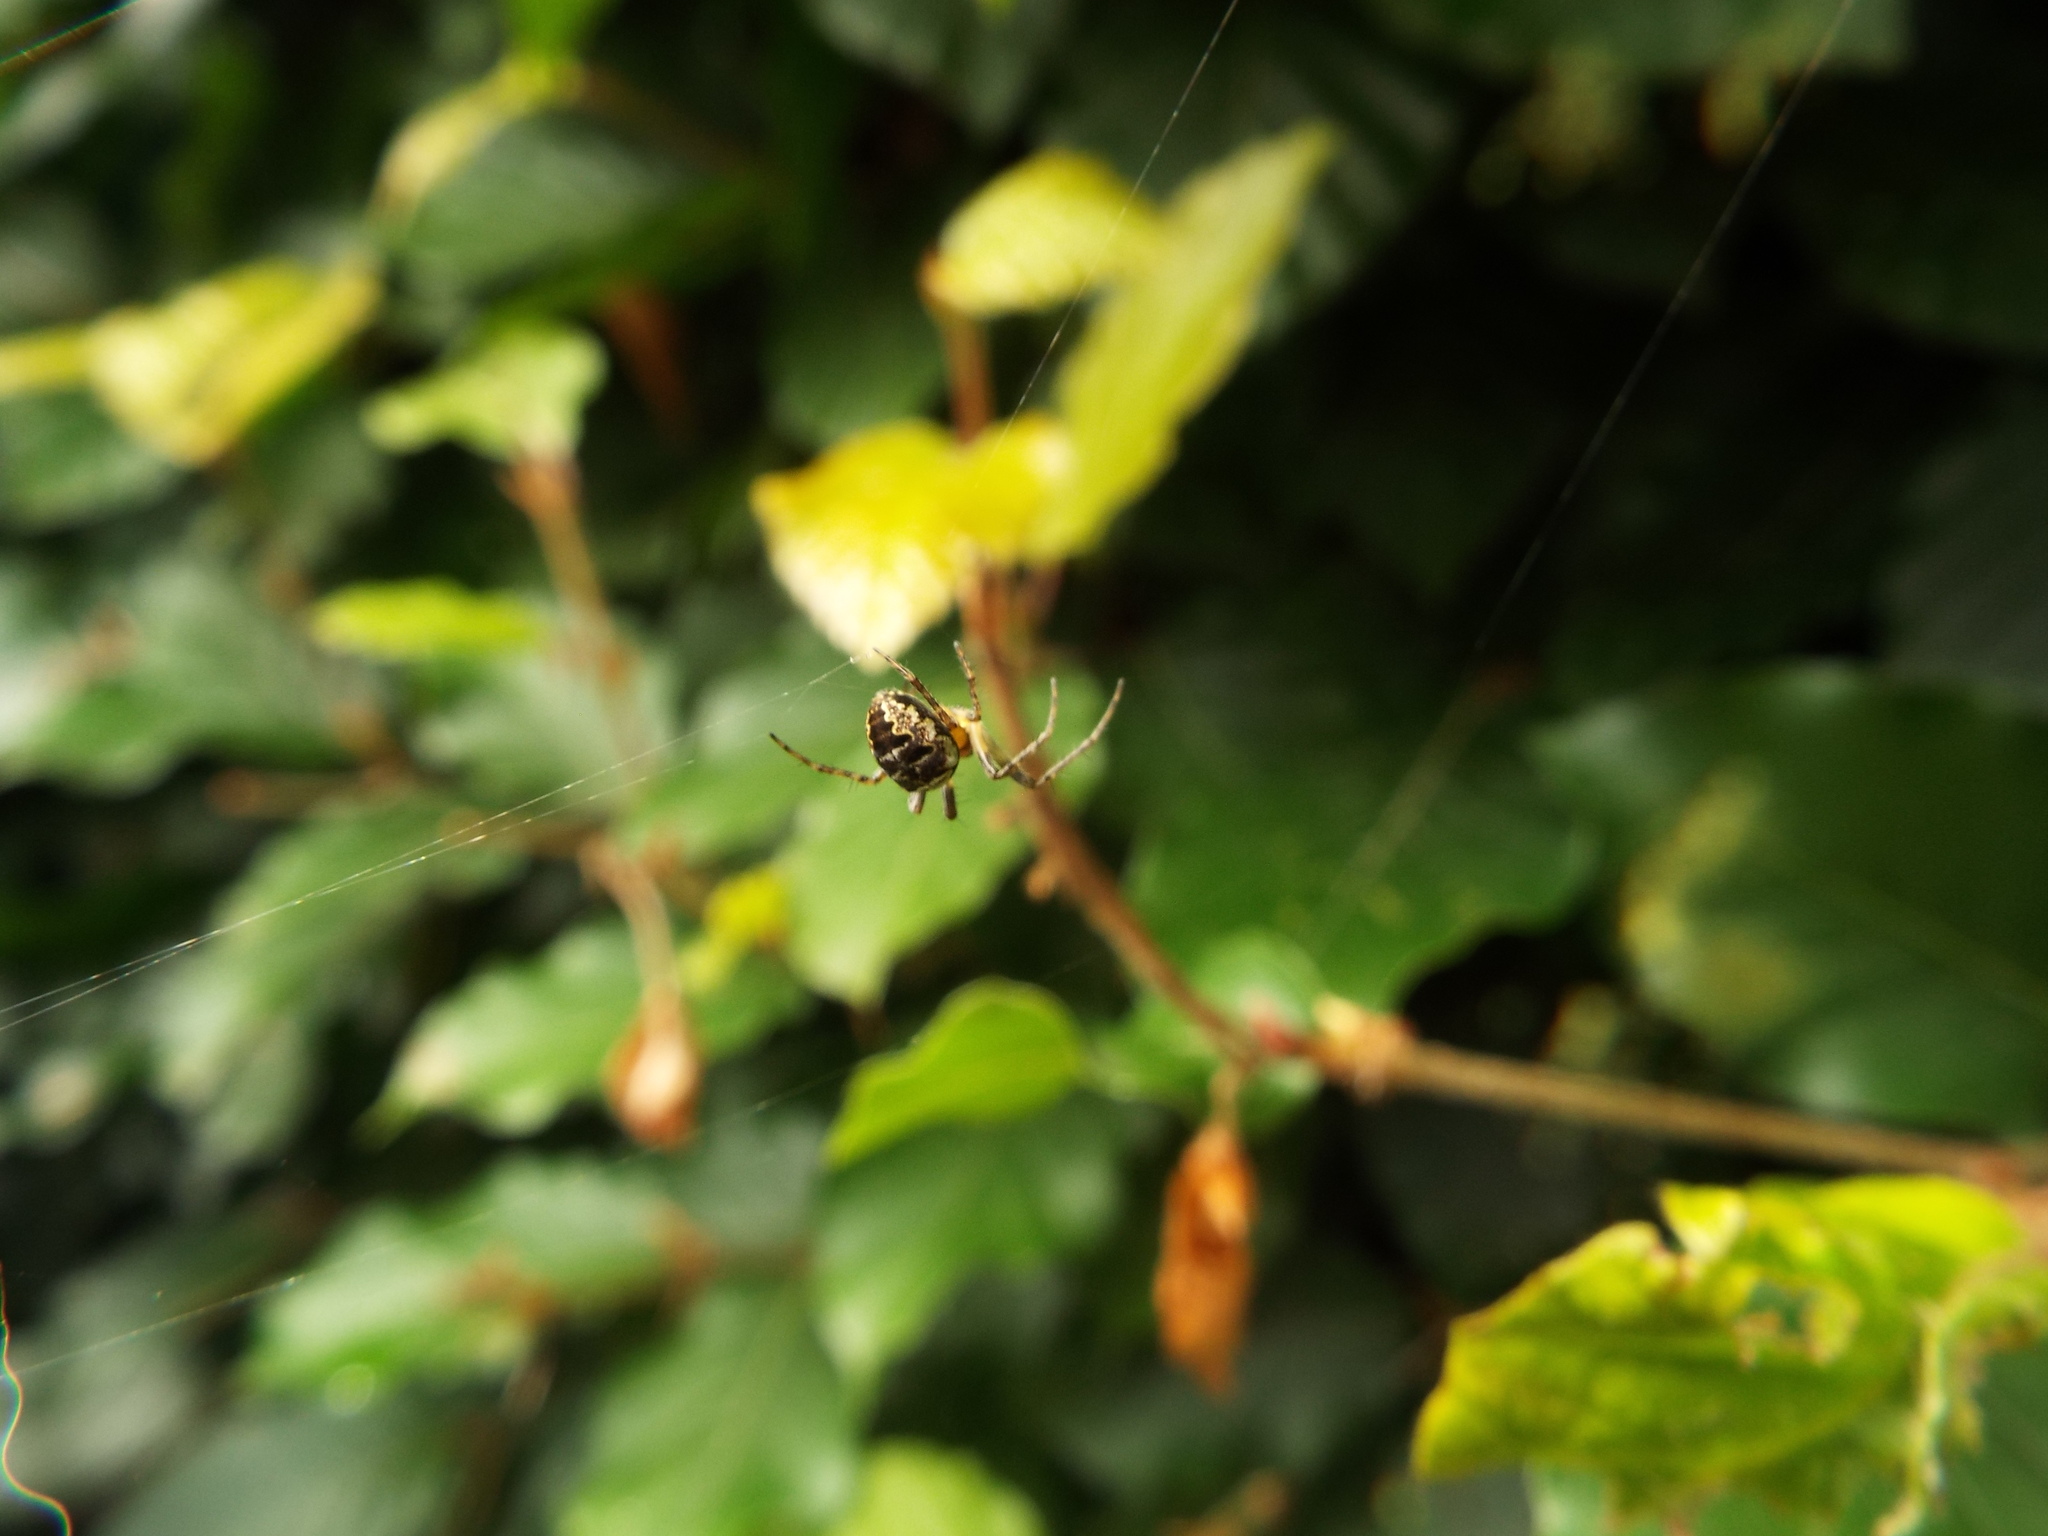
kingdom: Animalia
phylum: Arthropoda
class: Arachnida
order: Araneae
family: Araneidae
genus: Zilla
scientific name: Zilla diodia
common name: Zilla diodia
